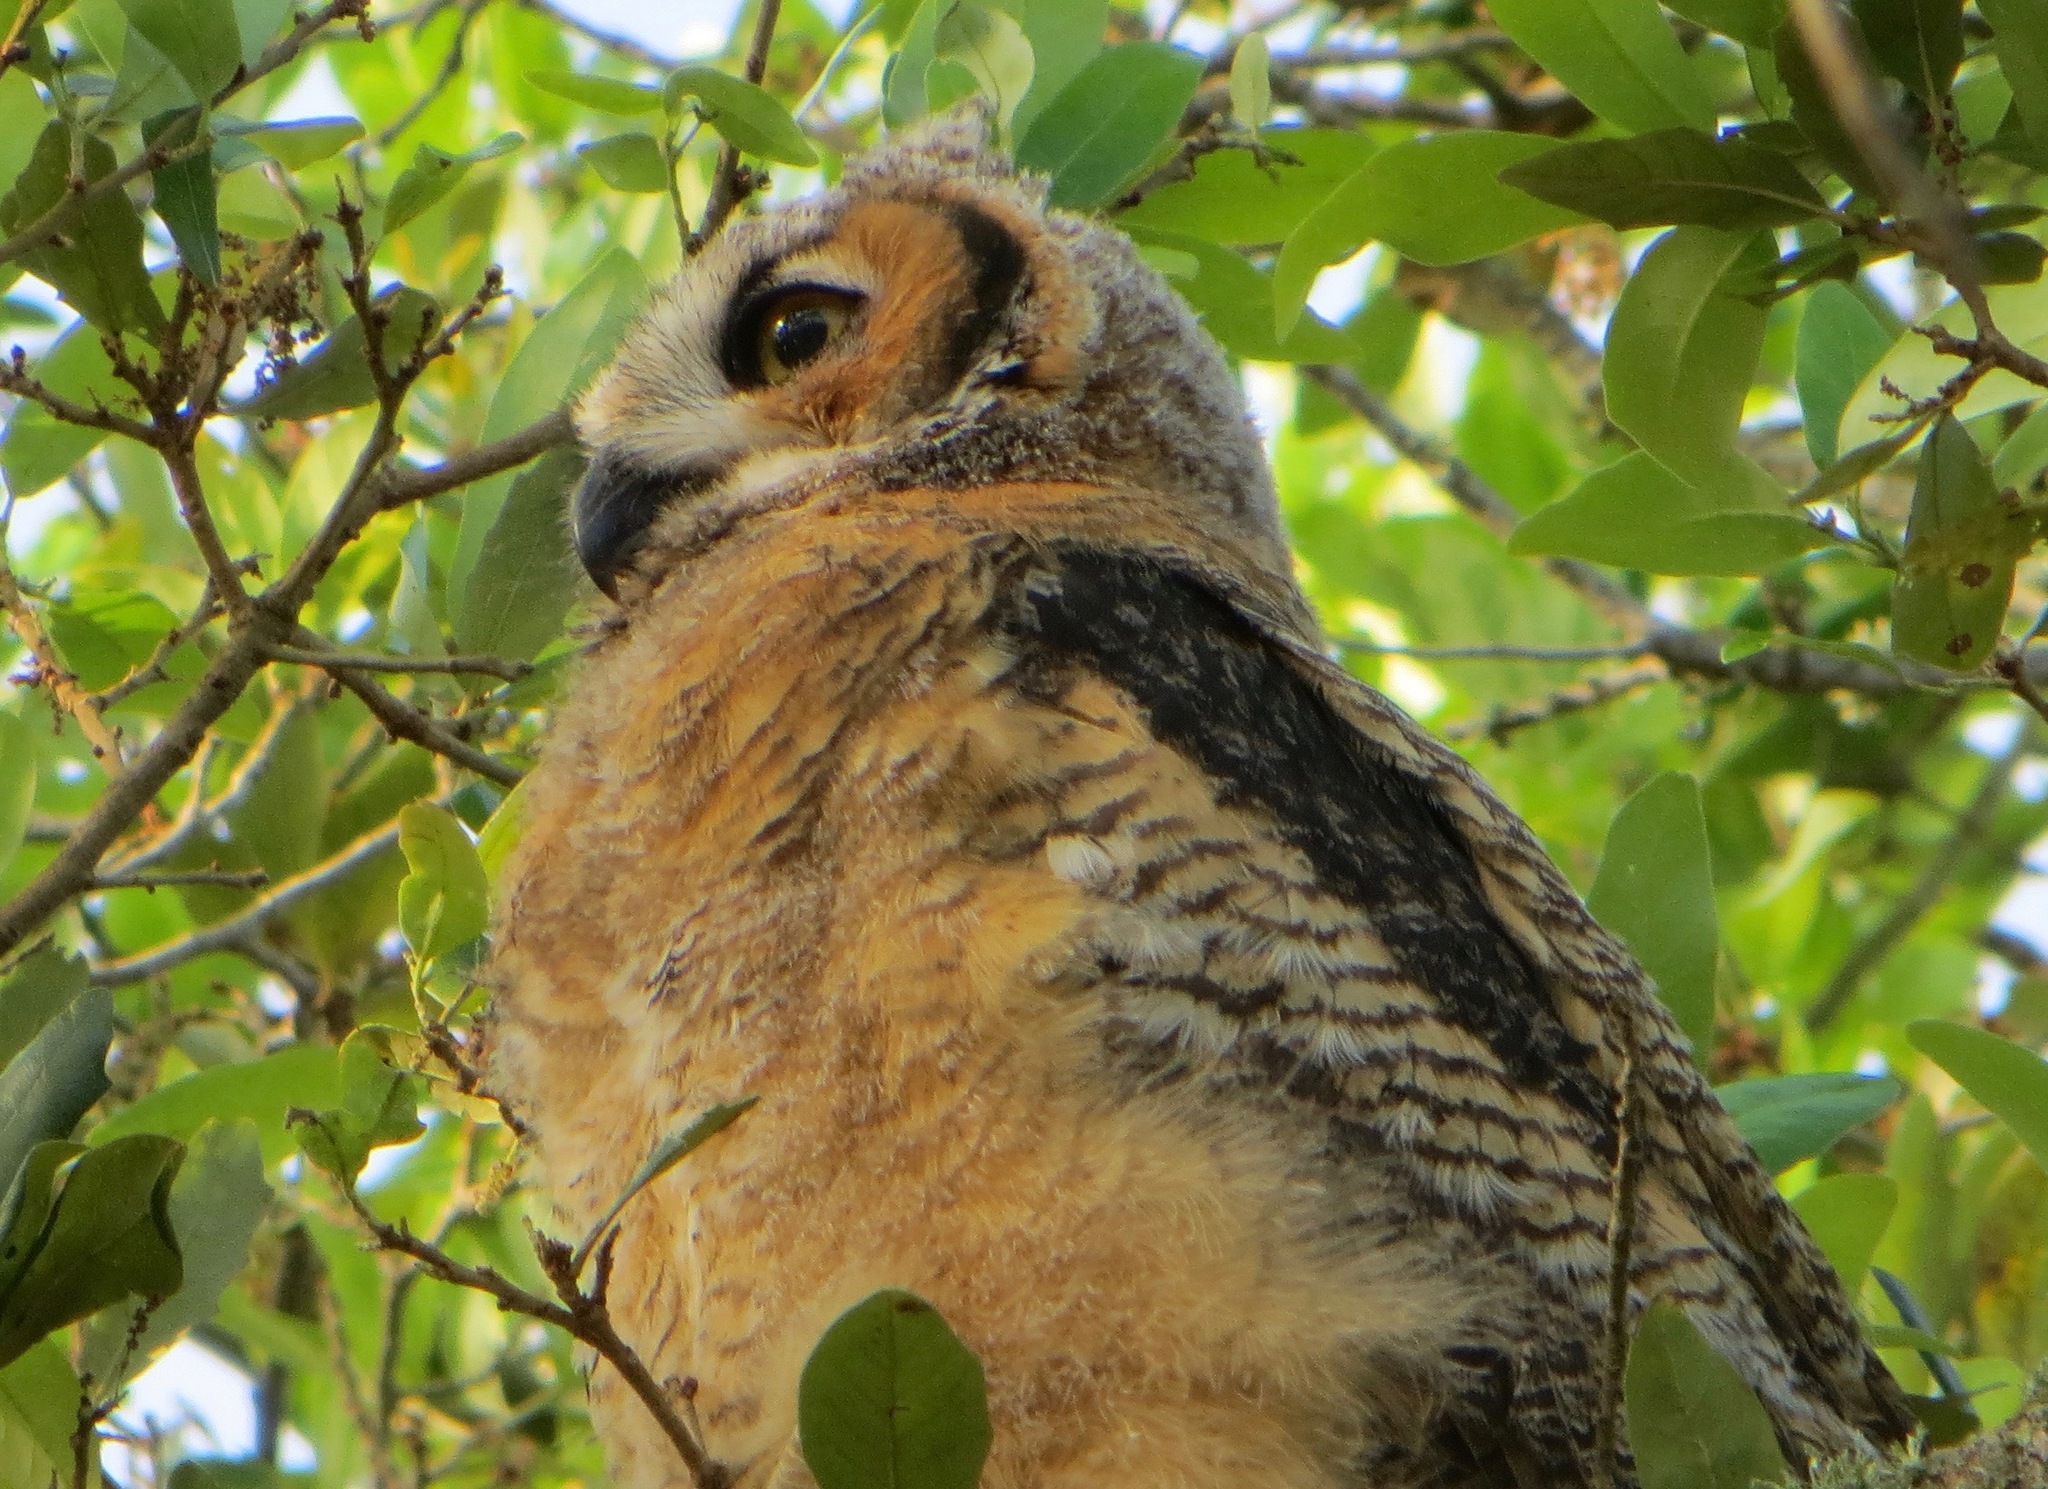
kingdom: Animalia
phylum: Chordata
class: Aves
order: Strigiformes
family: Strigidae
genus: Bubo
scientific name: Bubo virginianus
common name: Great horned owl
